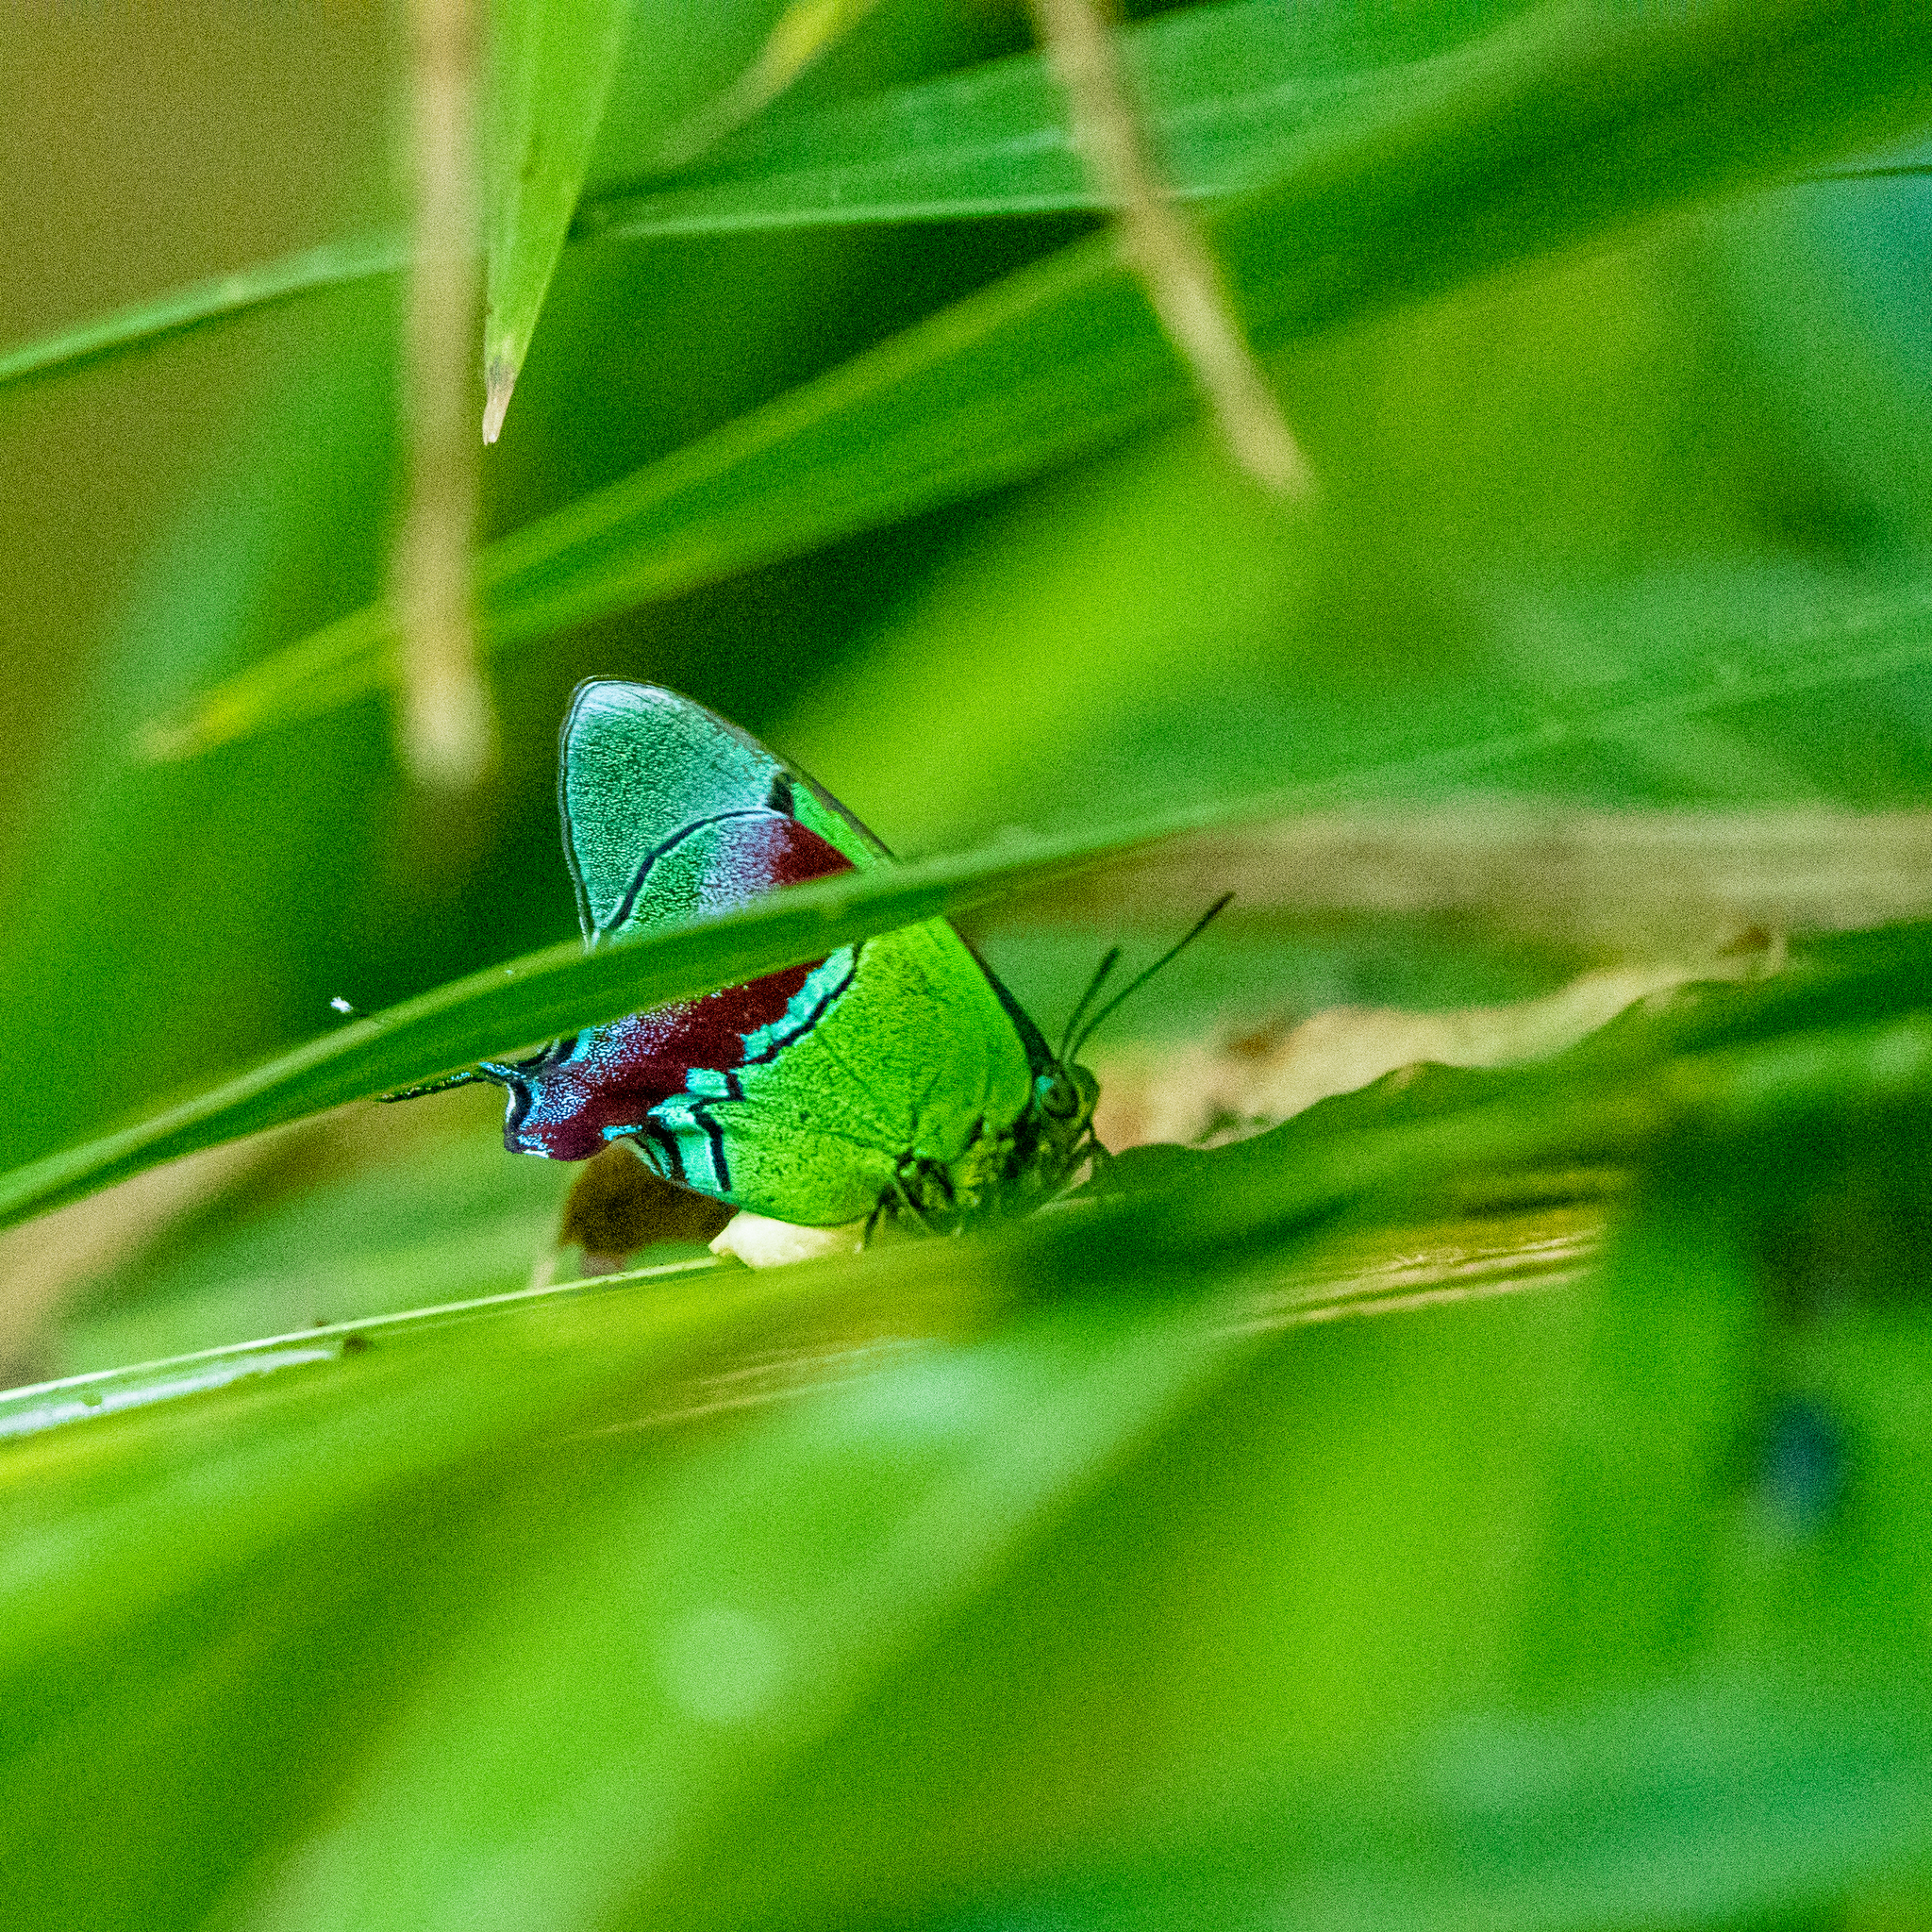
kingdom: Animalia
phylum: Arthropoda
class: Insecta
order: Lepidoptera
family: Lycaenidae
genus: Evenus
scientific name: Evenus regalis
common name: Regal hairstreak
